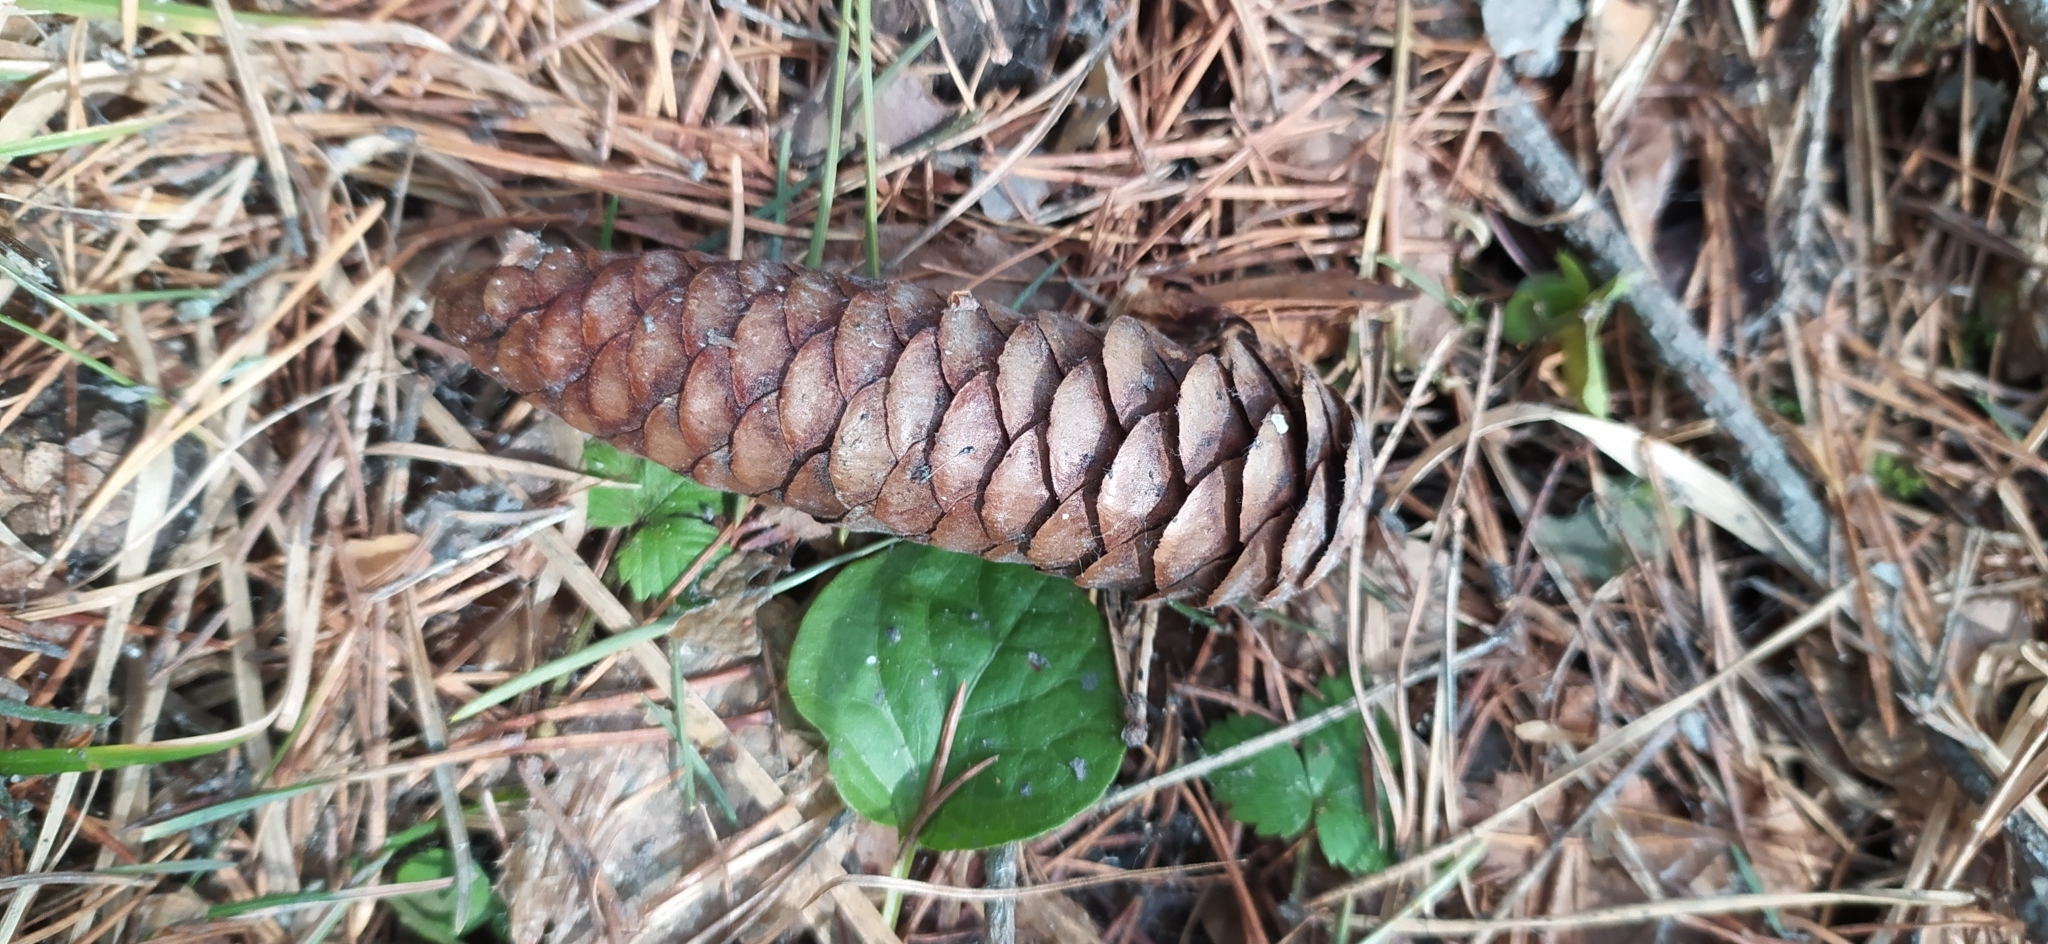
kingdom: Plantae
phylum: Tracheophyta
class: Pinopsida
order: Pinales
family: Pinaceae
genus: Picea
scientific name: Picea obovata
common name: Siberian spruce
